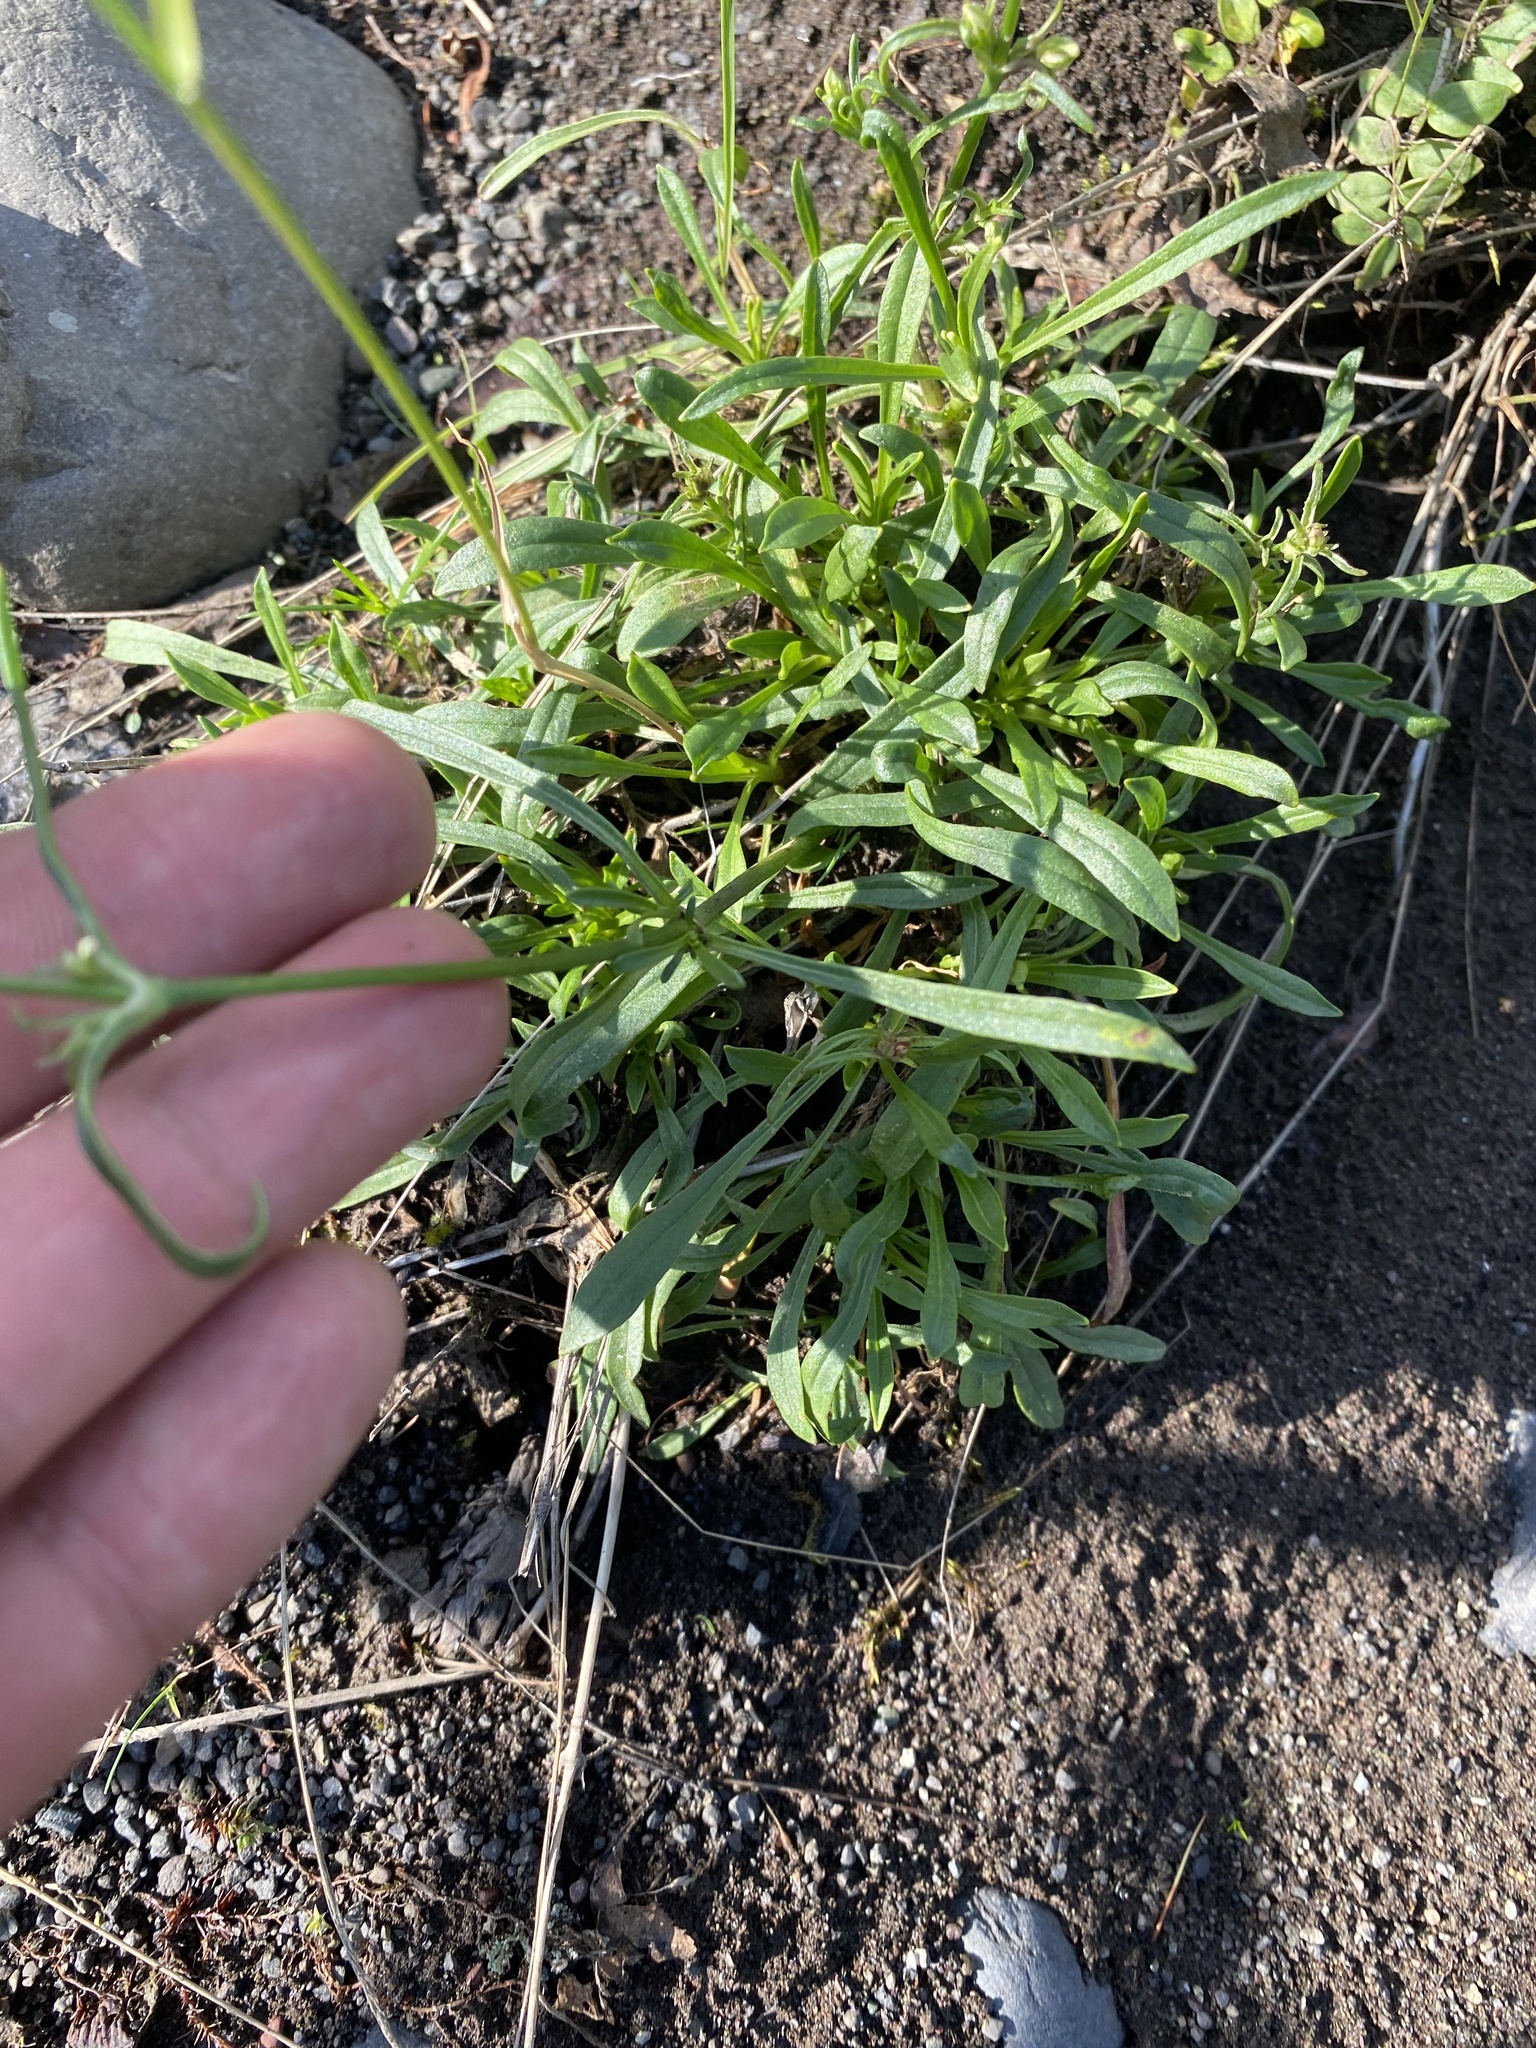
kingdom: Plantae
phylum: Tracheophyta
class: Magnoliopsida
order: Caryophyllales
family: Caryophyllaceae
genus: Silene
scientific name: Silene chamarensis
